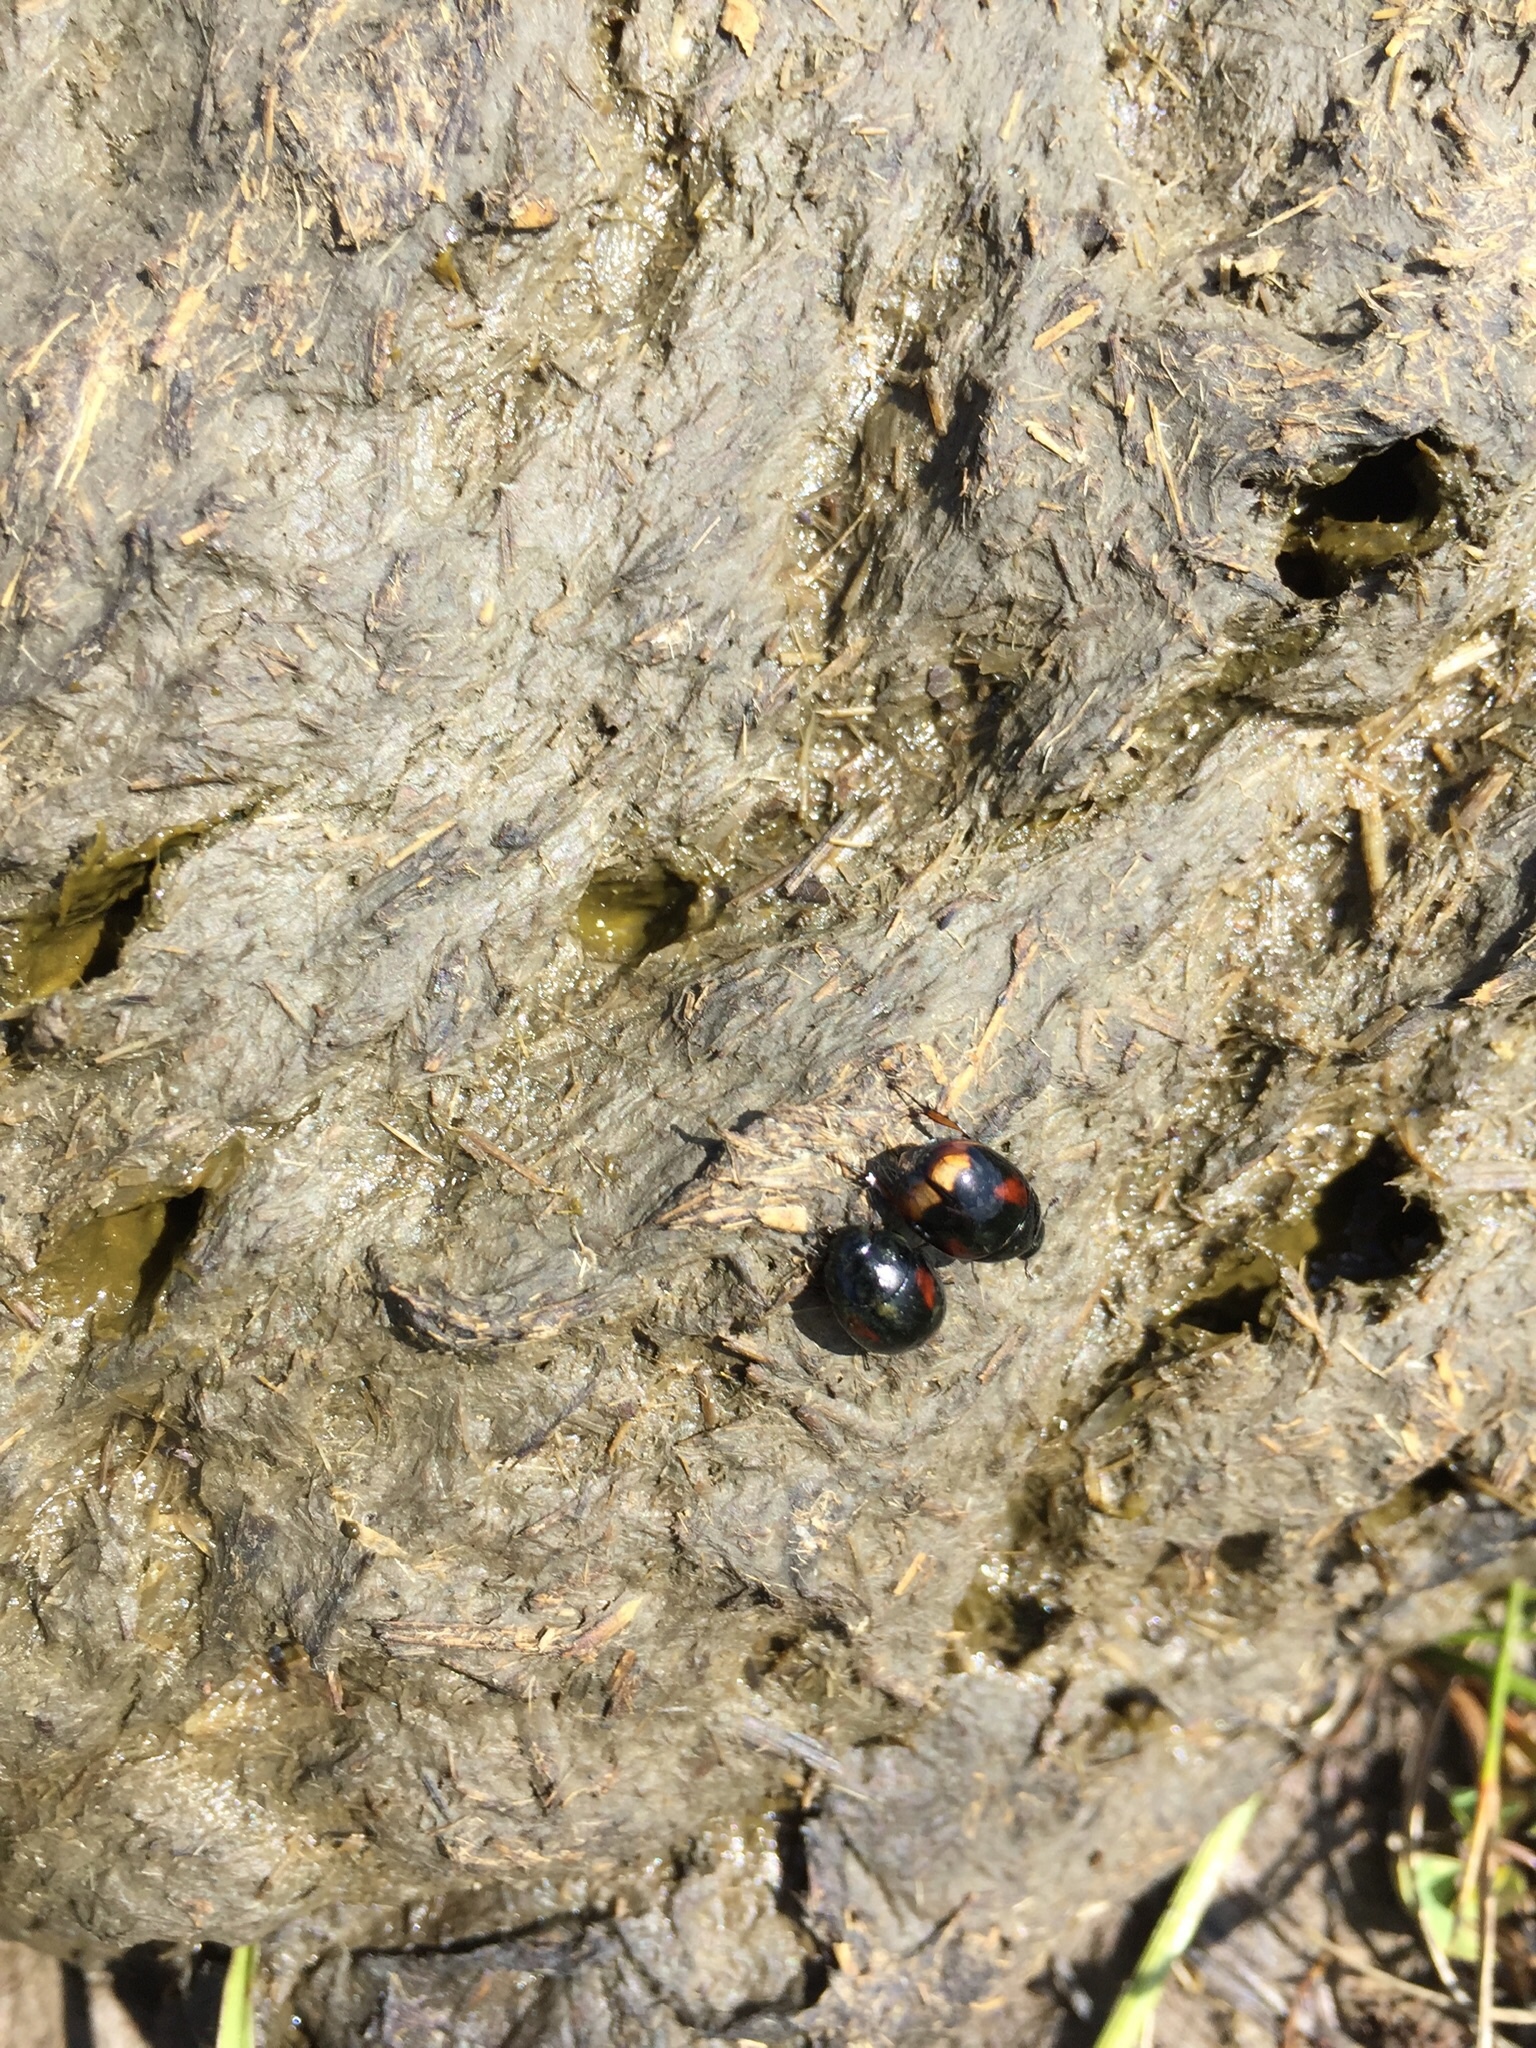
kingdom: Animalia
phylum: Arthropoda
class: Insecta
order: Coleoptera
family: Hydrophilidae
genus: Sphaeridium
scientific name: Sphaeridium
